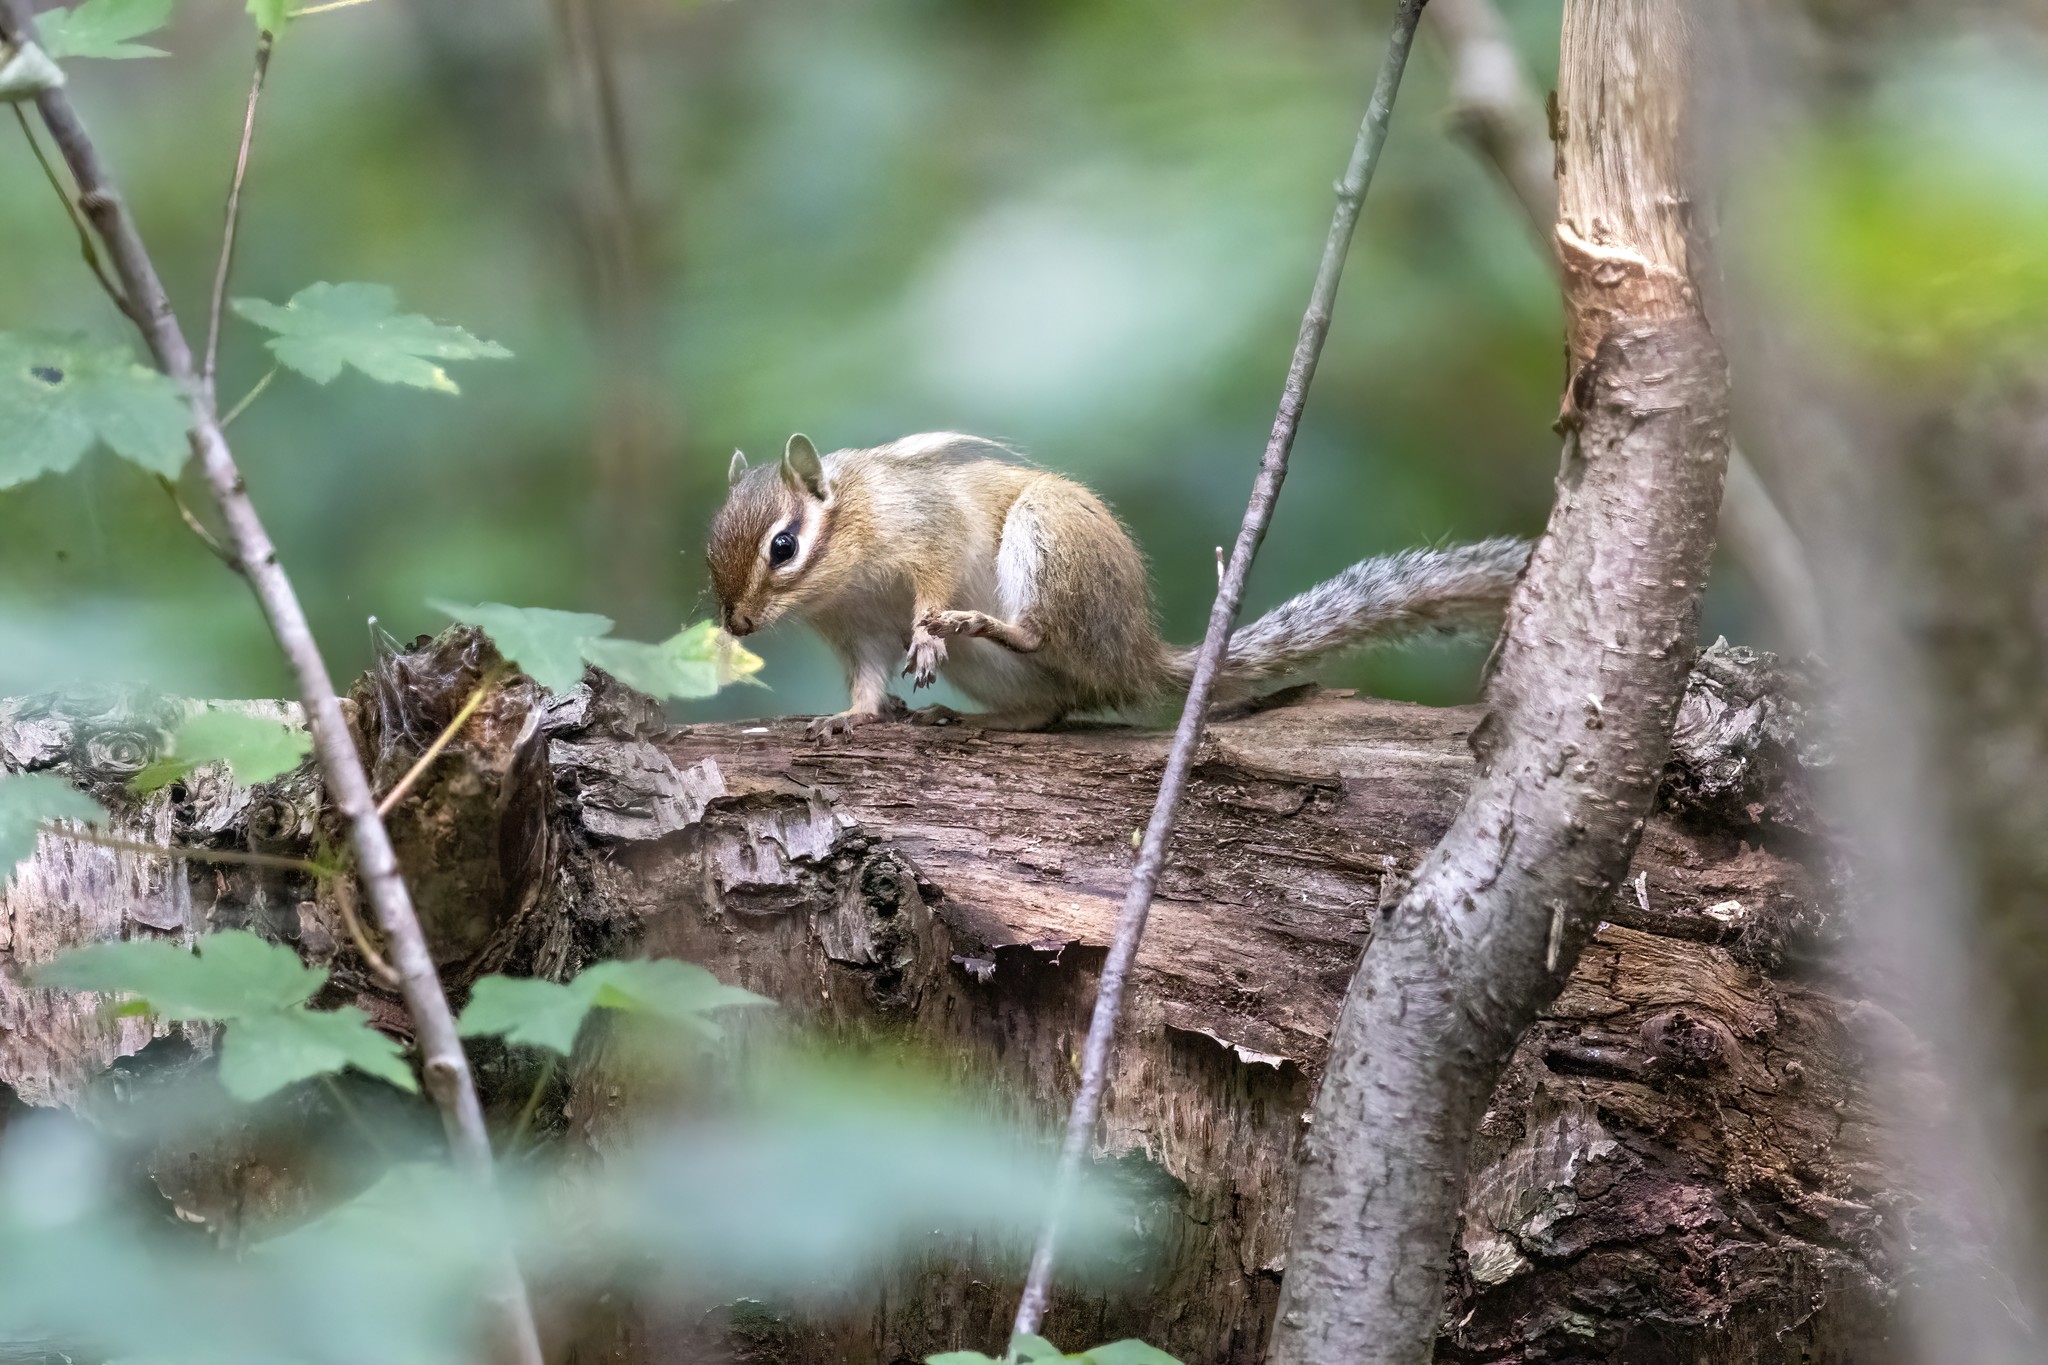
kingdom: Animalia
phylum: Chordata
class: Mammalia
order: Rodentia
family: Sciuridae
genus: Tamias
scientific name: Tamias sibiricus
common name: Siberian chipmunk
